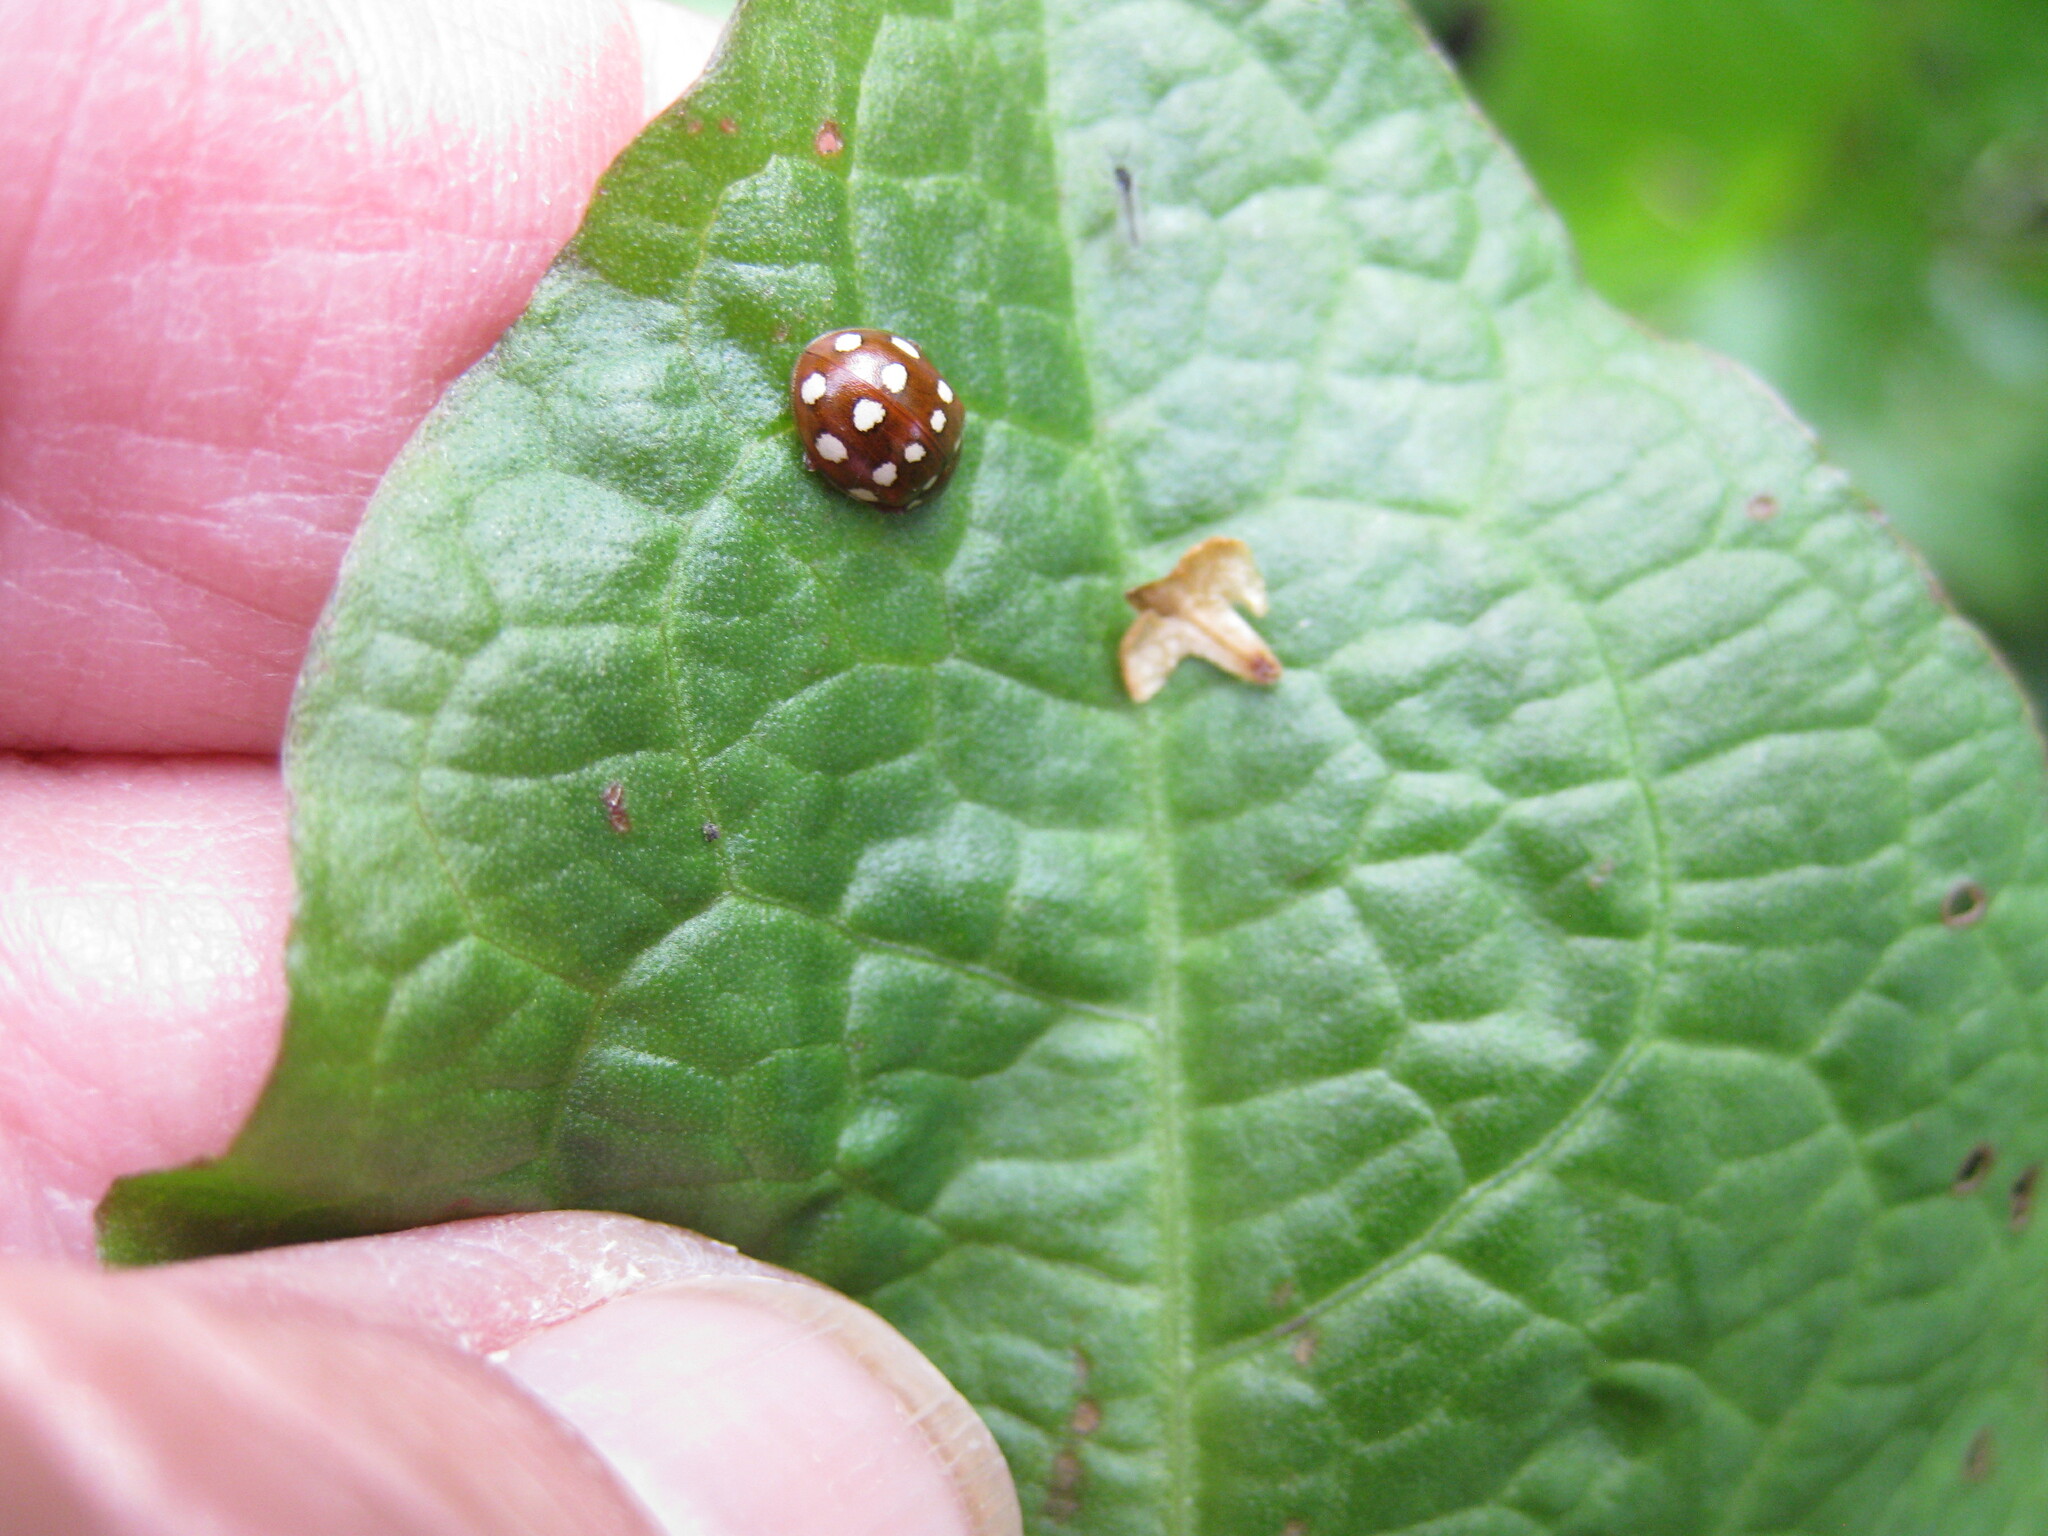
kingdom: Animalia
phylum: Arthropoda
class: Insecta
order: Coleoptera
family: Coccinellidae
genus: Calvia
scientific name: Calvia quatuordecimguttata
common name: Cream-spot ladybird
